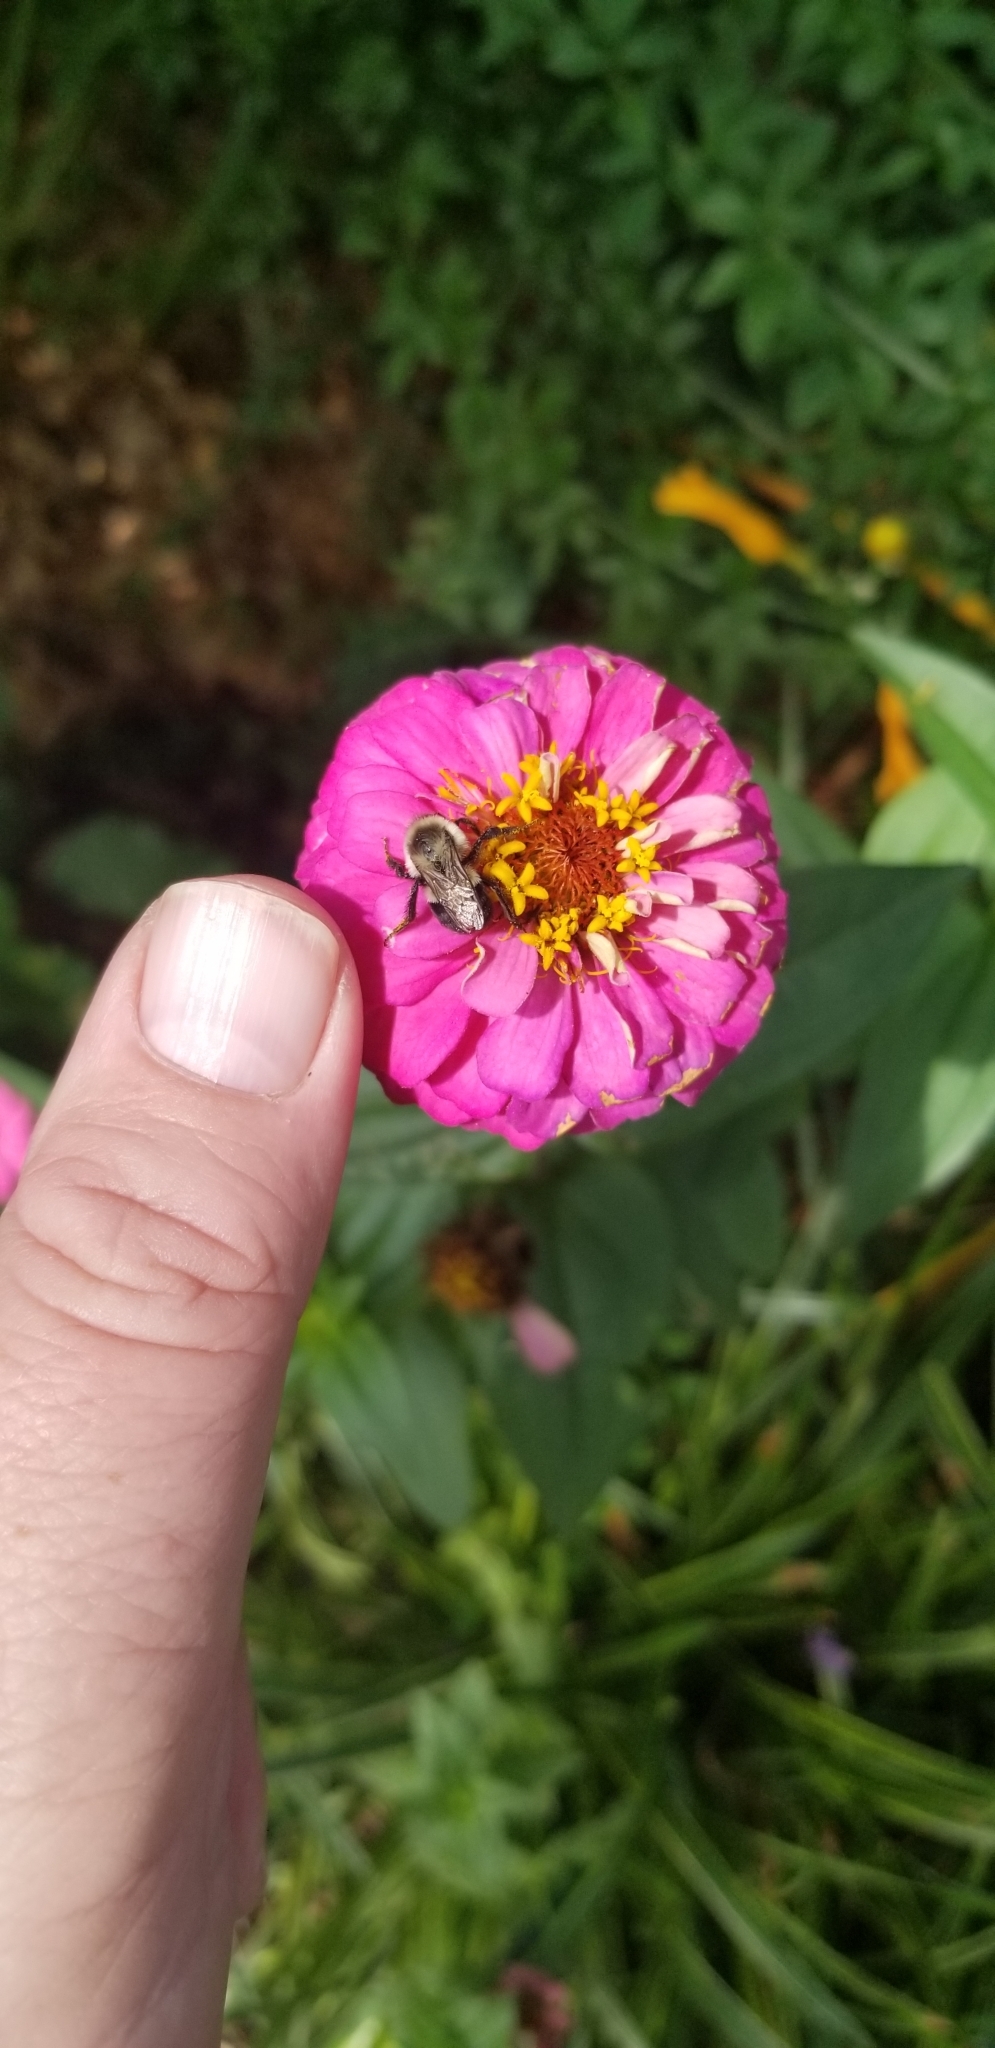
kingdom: Animalia
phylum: Arthropoda
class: Insecta
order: Hymenoptera
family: Apidae
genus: Bombus
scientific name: Bombus impatiens
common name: Common eastern bumble bee
